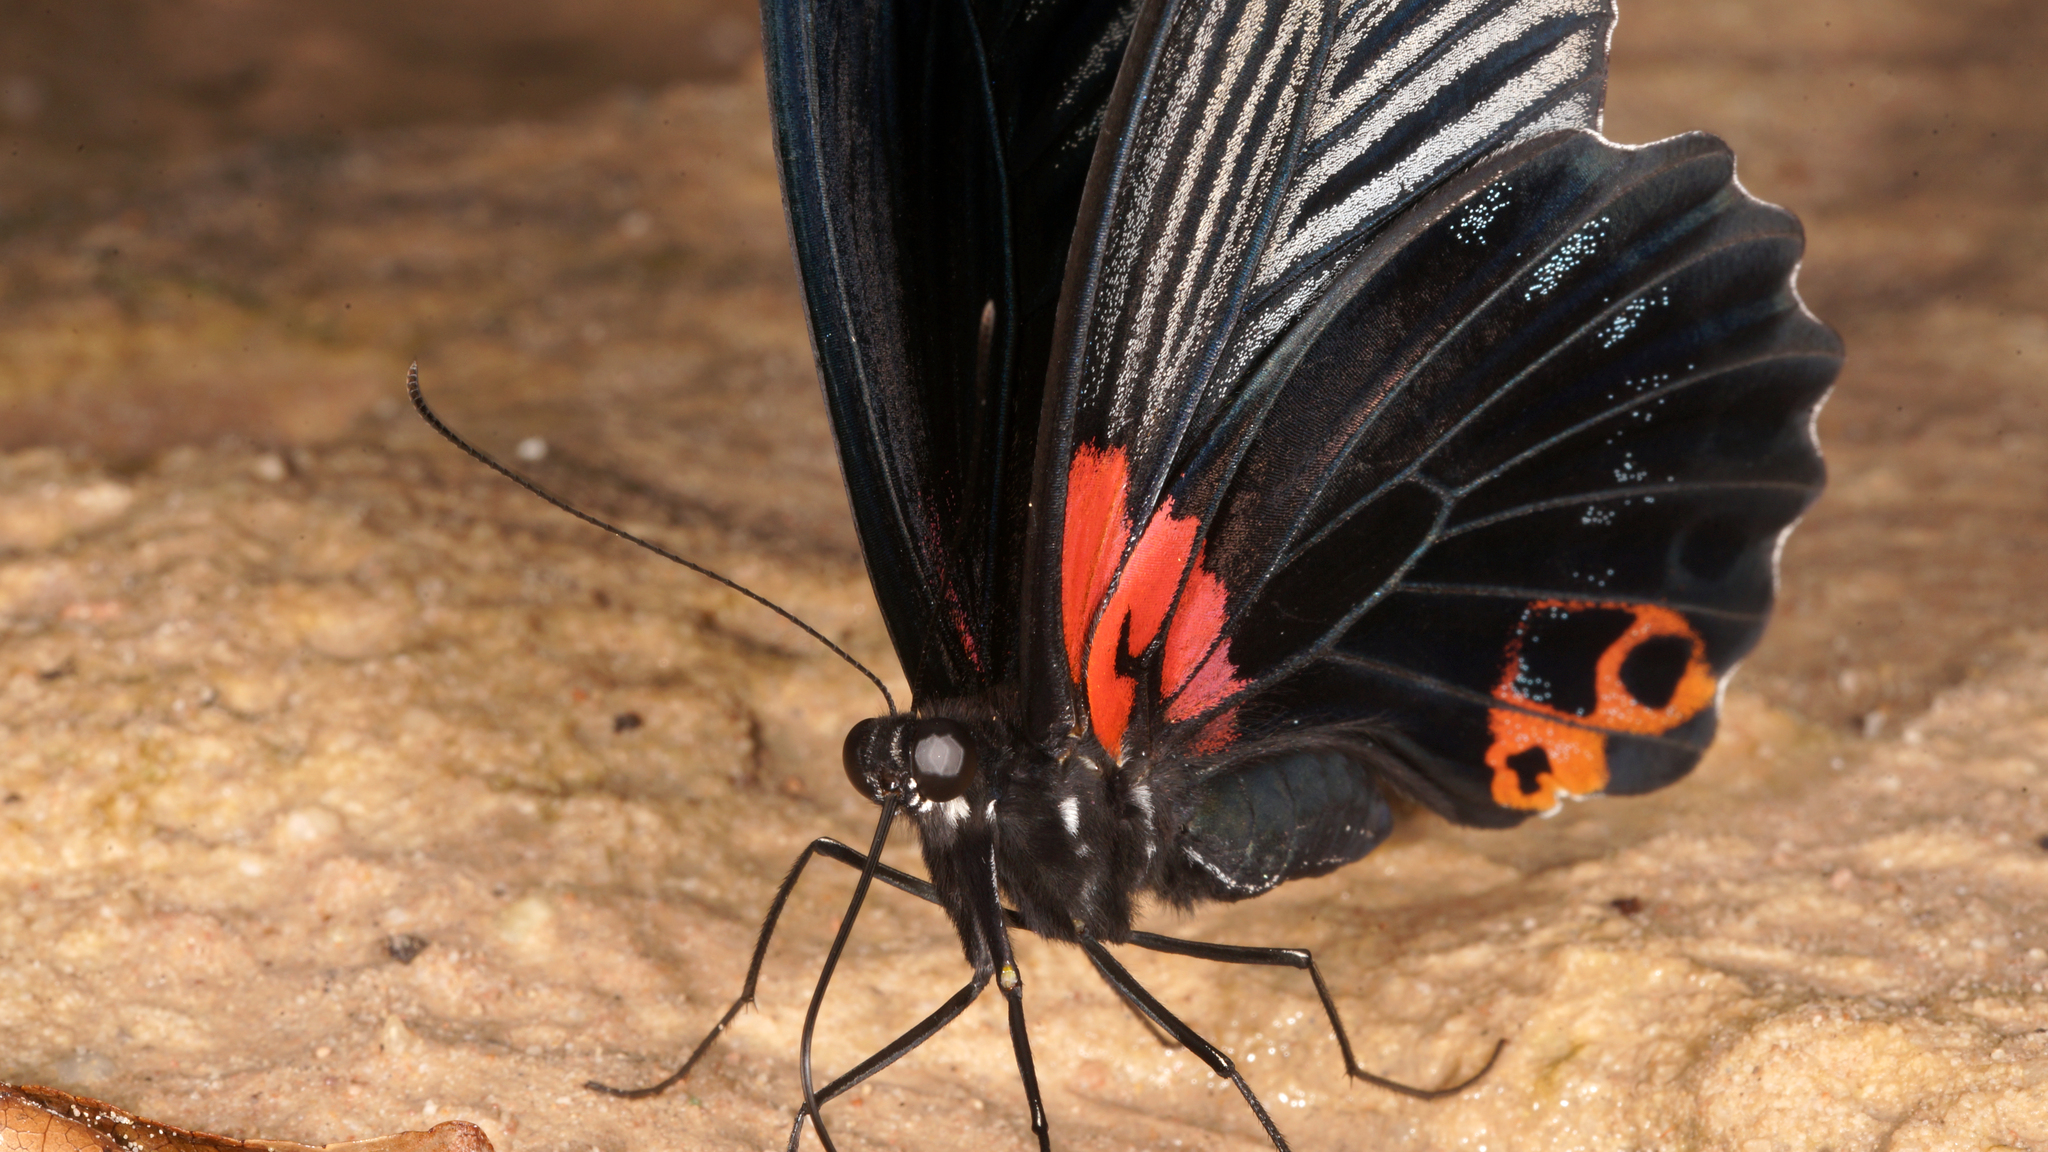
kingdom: Animalia
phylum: Arthropoda
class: Insecta
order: Lepidoptera
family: Papilionidae
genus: Papilio
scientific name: Papilio memnon
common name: Great mormon
